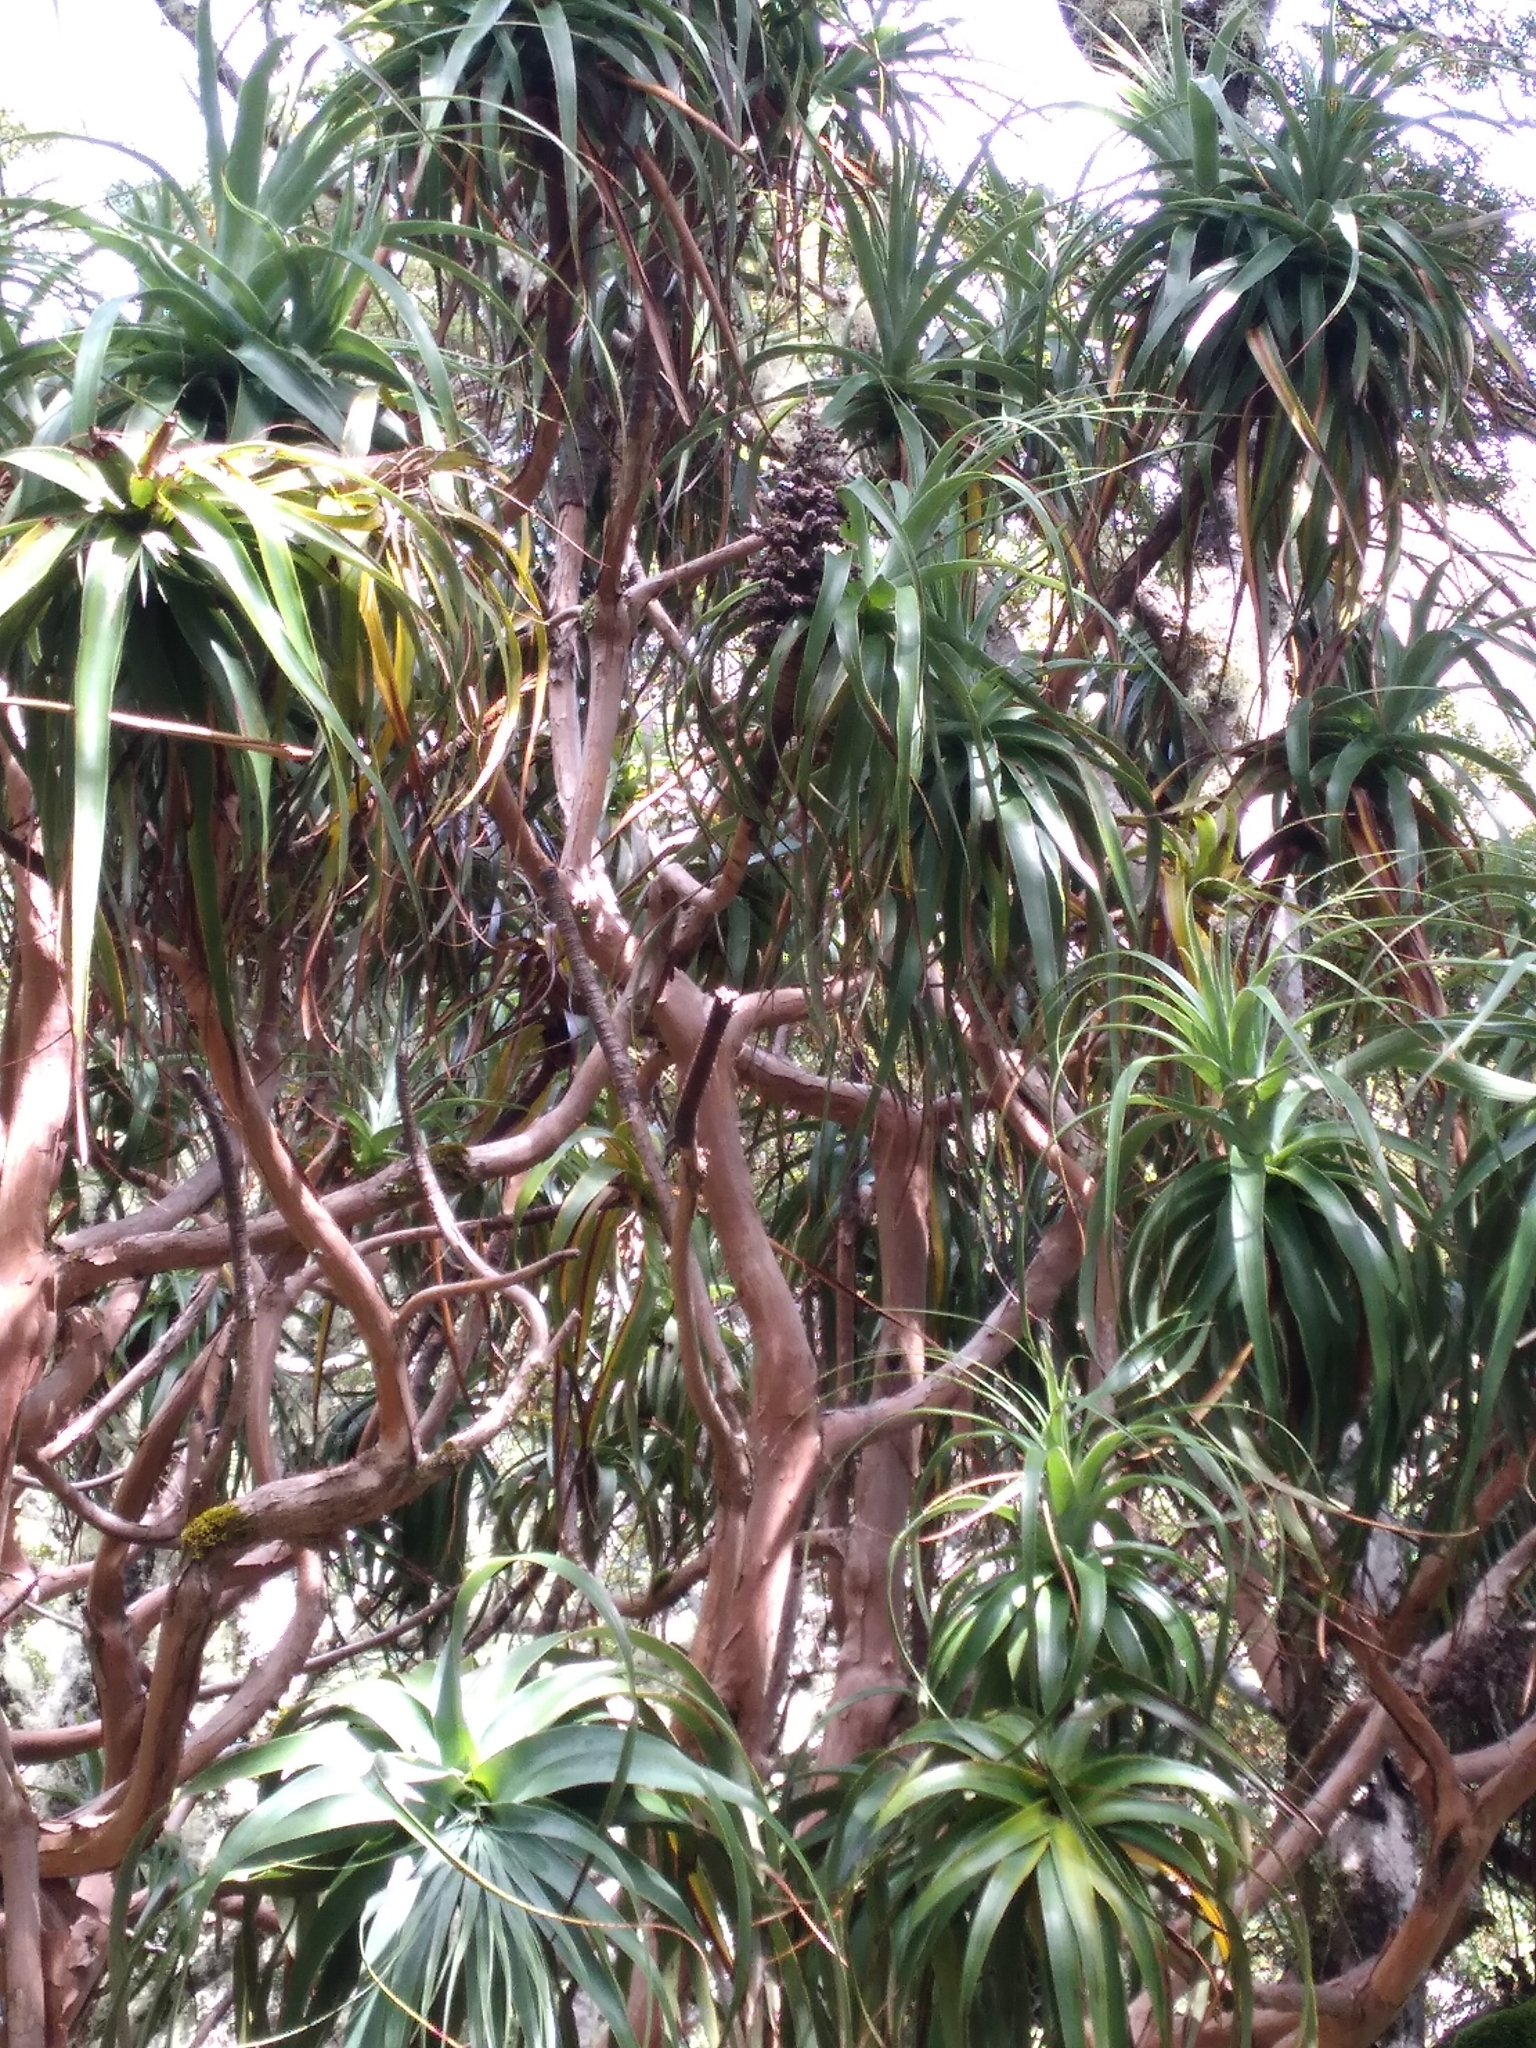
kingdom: Plantae
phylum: Tracheophyta
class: Magnoliopsida
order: Ericales
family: Ericaceae
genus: Dracophyllum
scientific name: Dracophyllum traversii
